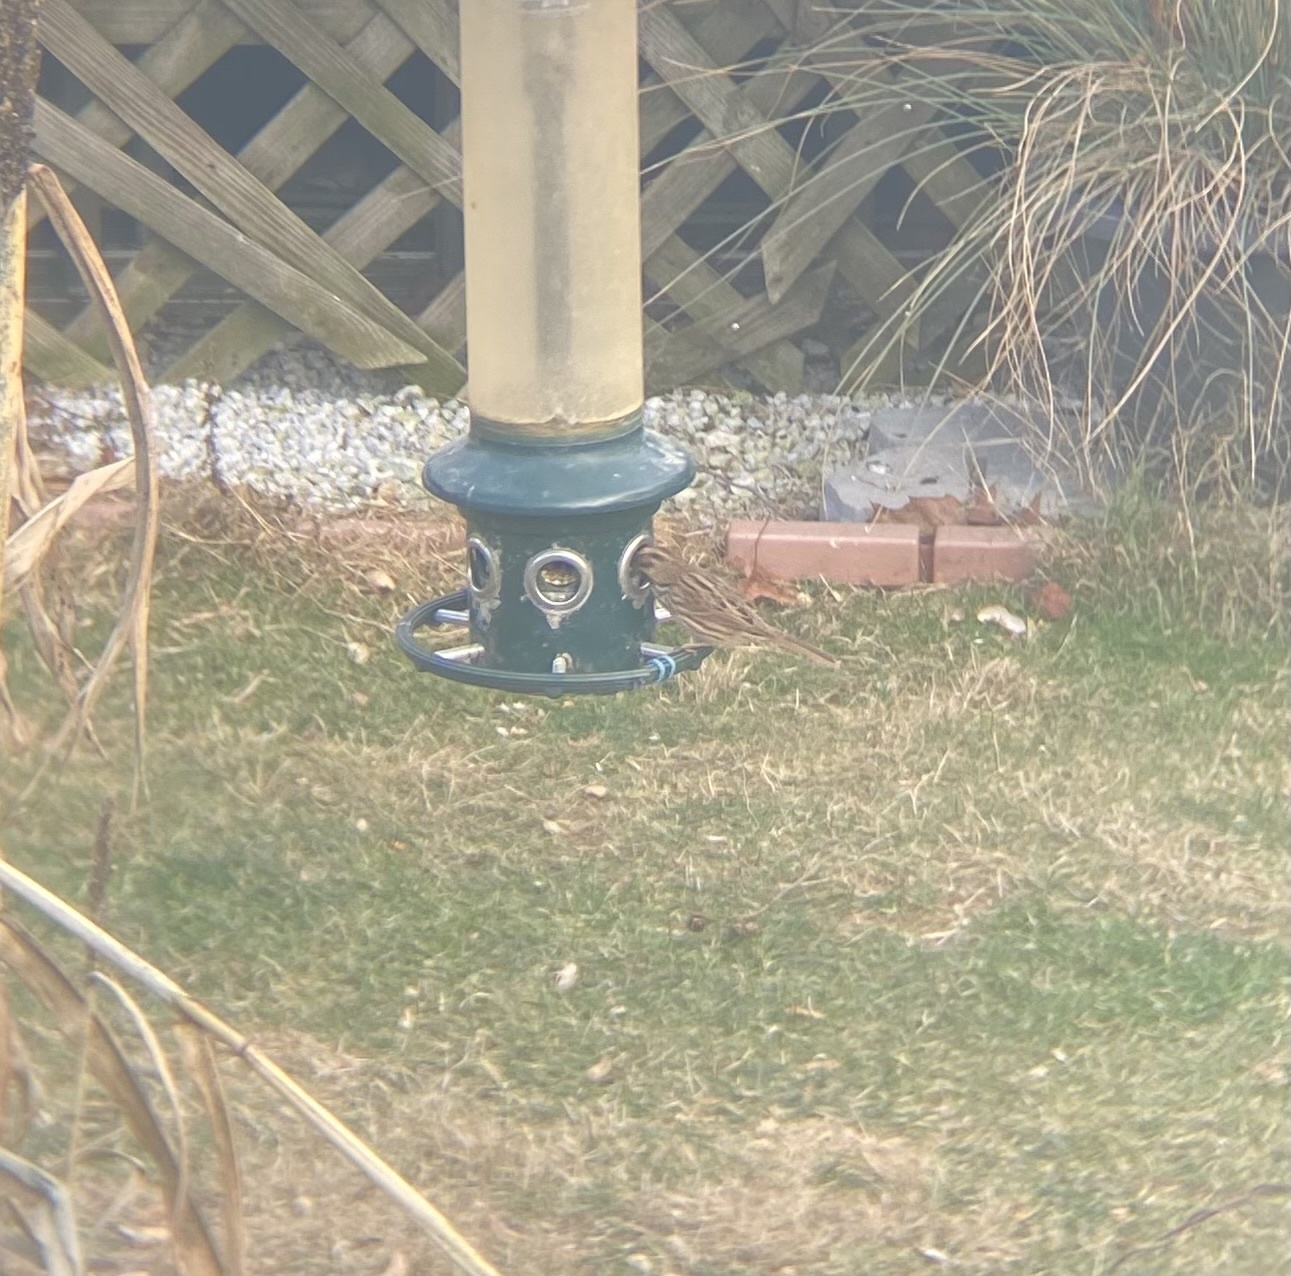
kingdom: Animalia
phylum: Chordata
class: Aves
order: Passeriformes
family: Passerellidae
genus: Melospiza
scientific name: Melospiza melodia
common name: Song sparrow
